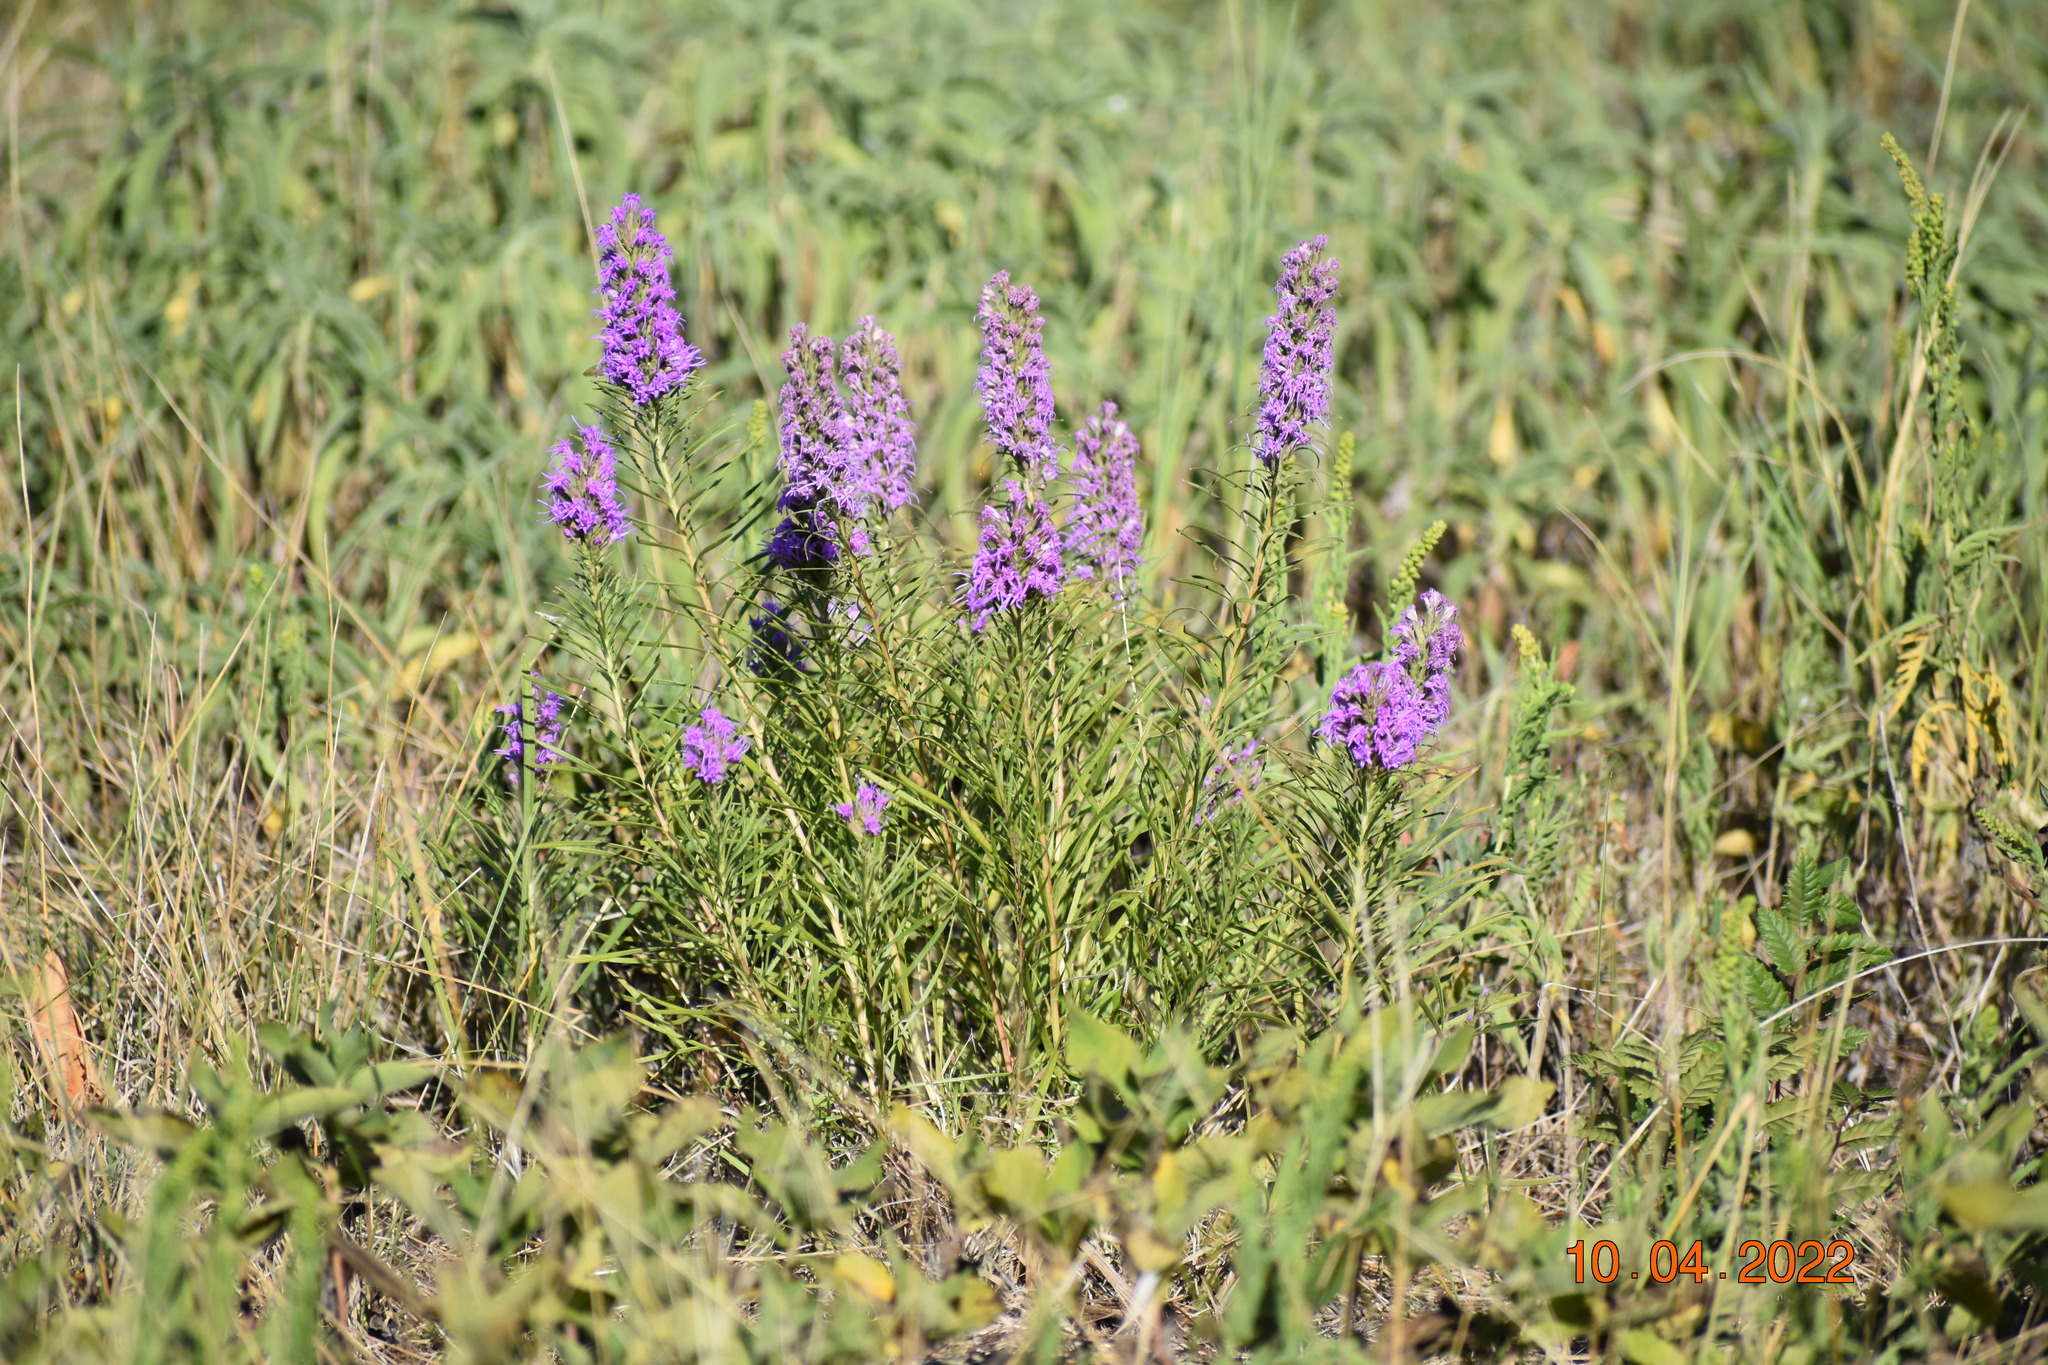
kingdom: Plantae
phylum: Tracheophyta
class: Magnoliopsida
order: Asterales
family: Asteraceae
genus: Liatris
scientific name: Liatris punctata
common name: Dotted gayfeather
